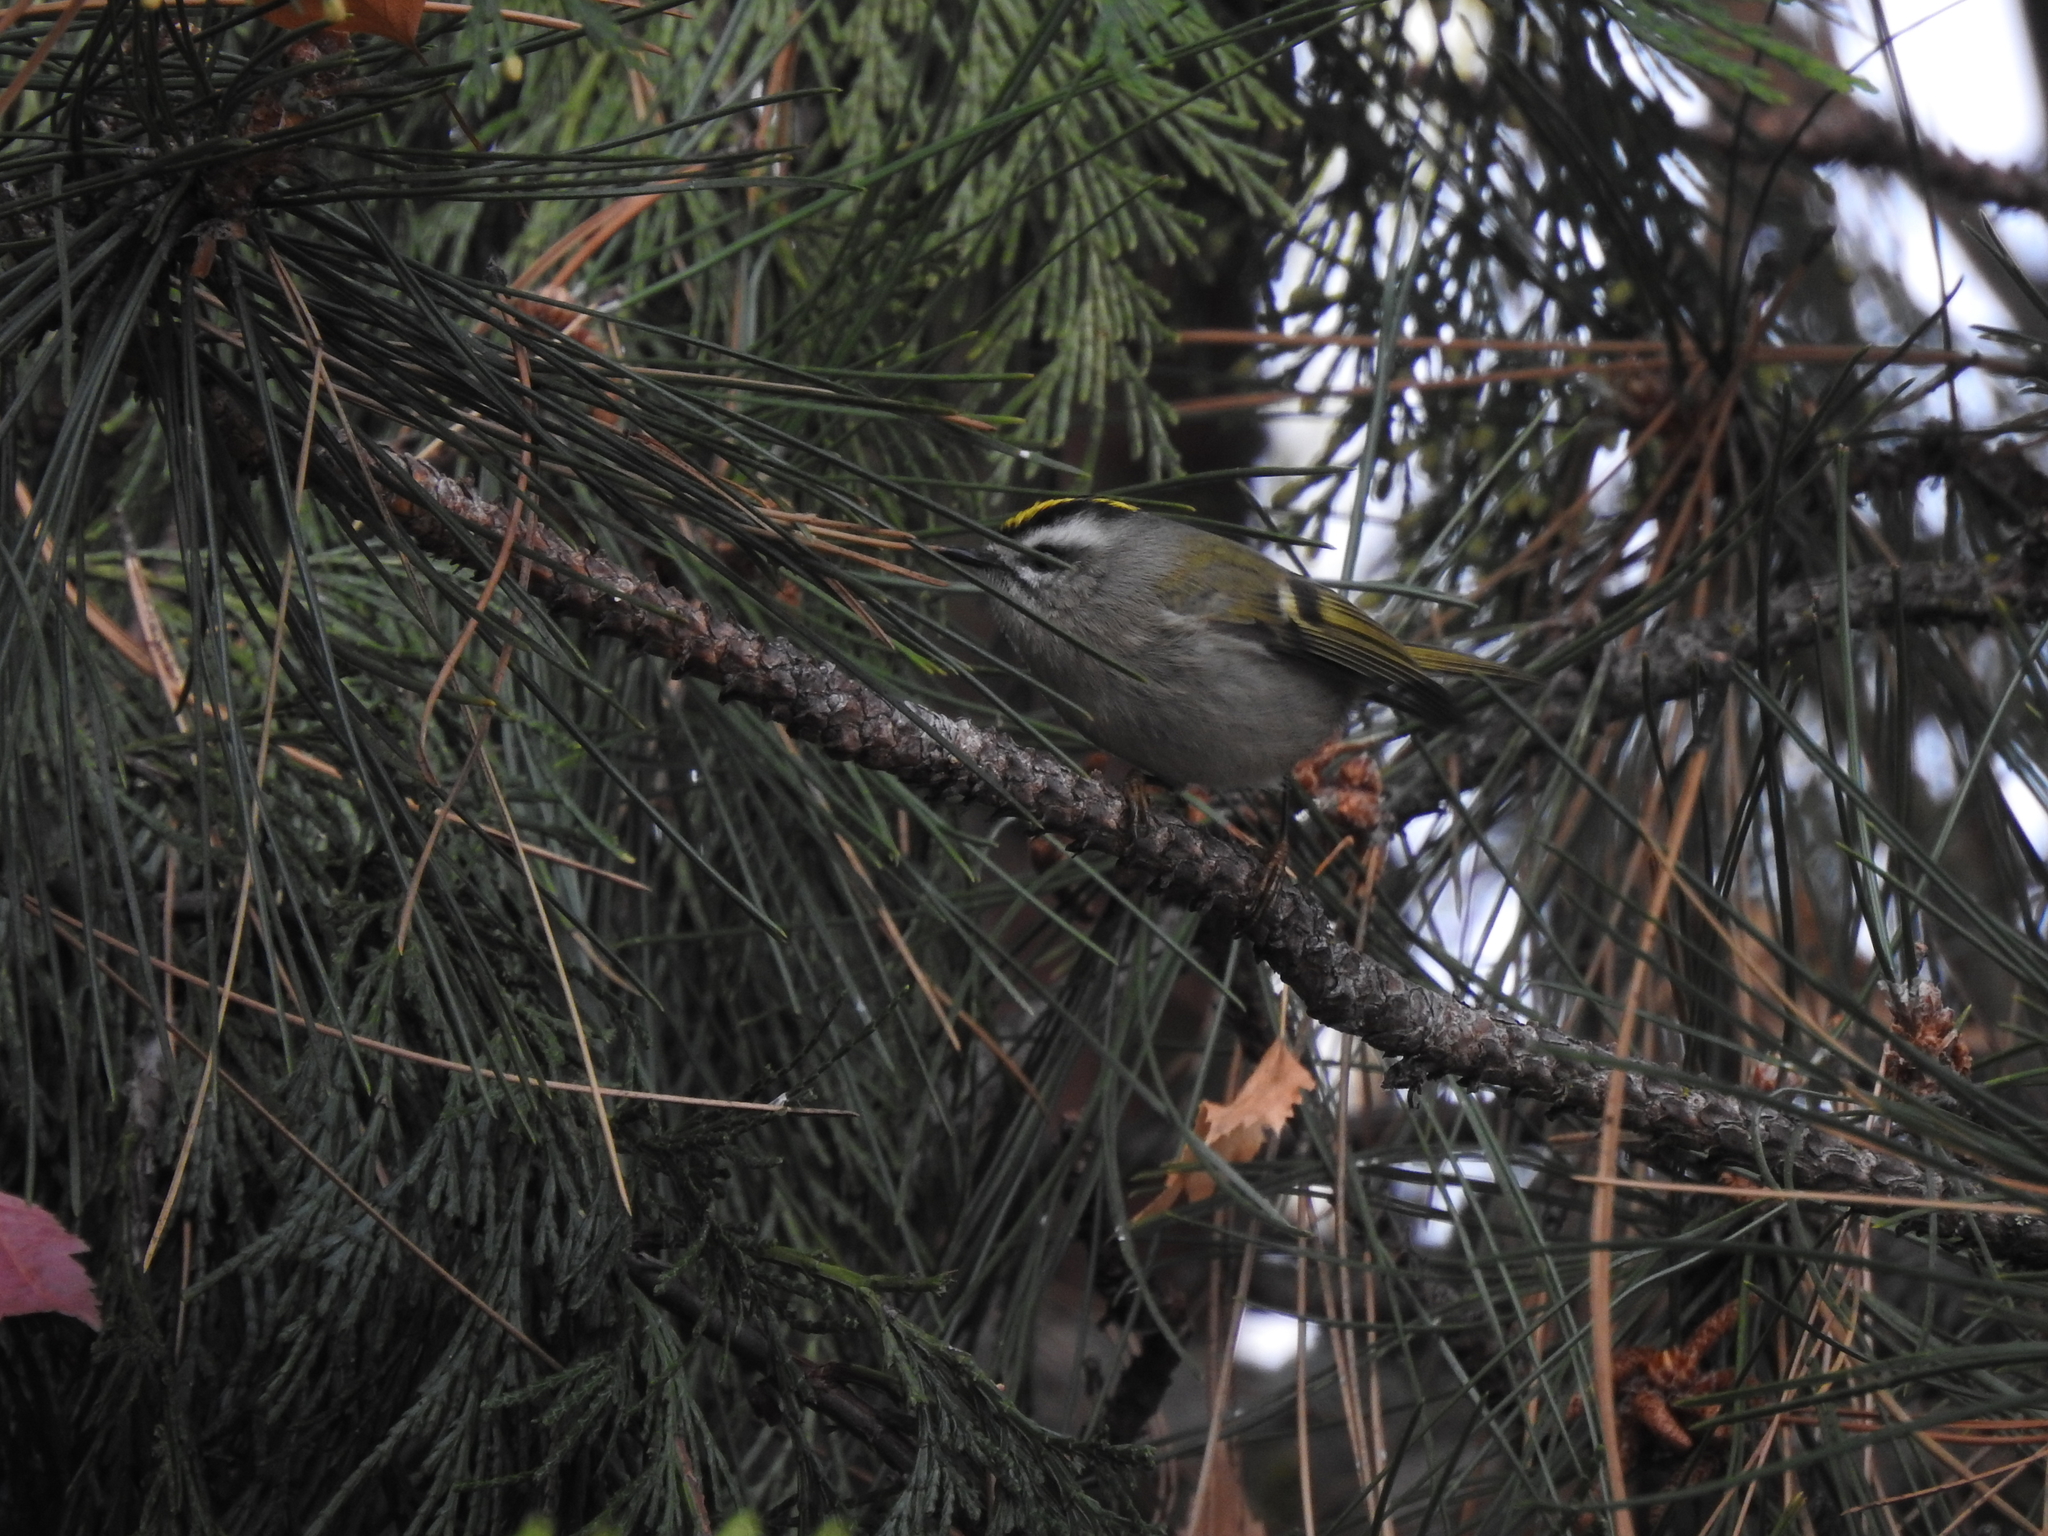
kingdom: Animalia
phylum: Chordata
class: Aves
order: Passeriformes
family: Regulidae
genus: Regulus
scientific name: Regulus satrapa
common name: Golden-crowned kinglet
